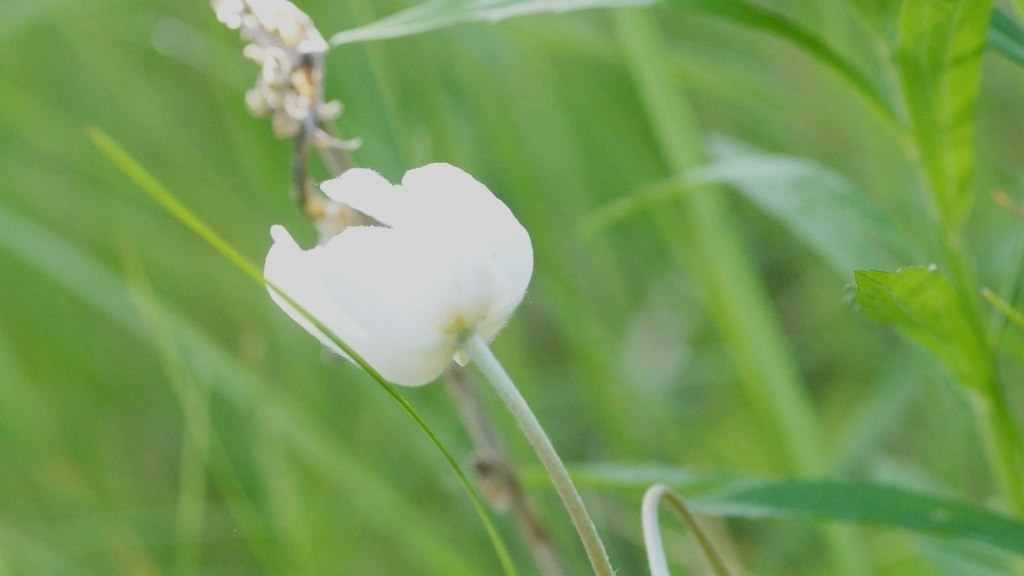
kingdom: Plantae
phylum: Tracheophyta
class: Magnoliopsida
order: Ranunculales
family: Ranunculaceae
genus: Anemone
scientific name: Anemone sylvestris
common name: Snowdrop anemone
